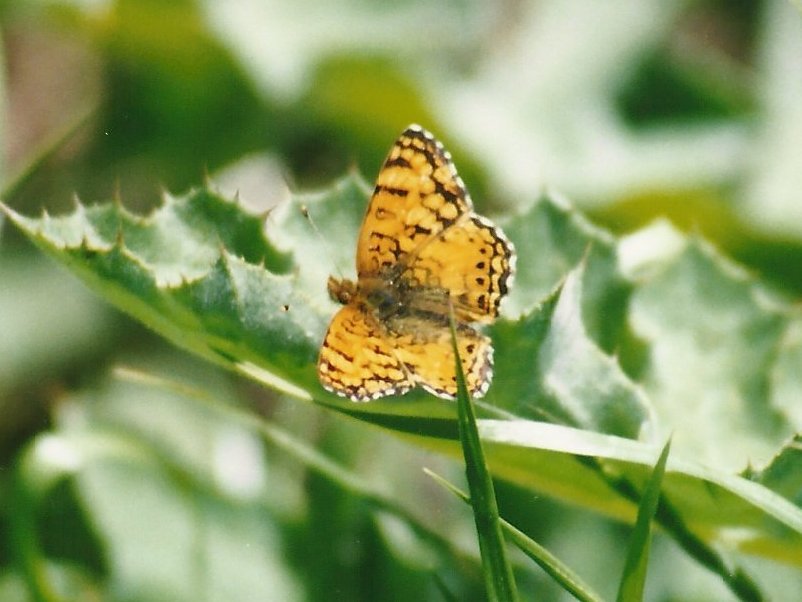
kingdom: Animalia
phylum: Arthropoda
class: Insecta
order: Lepidoptera
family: Nymphalidae
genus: Eresia
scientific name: Eresia aveyrona
